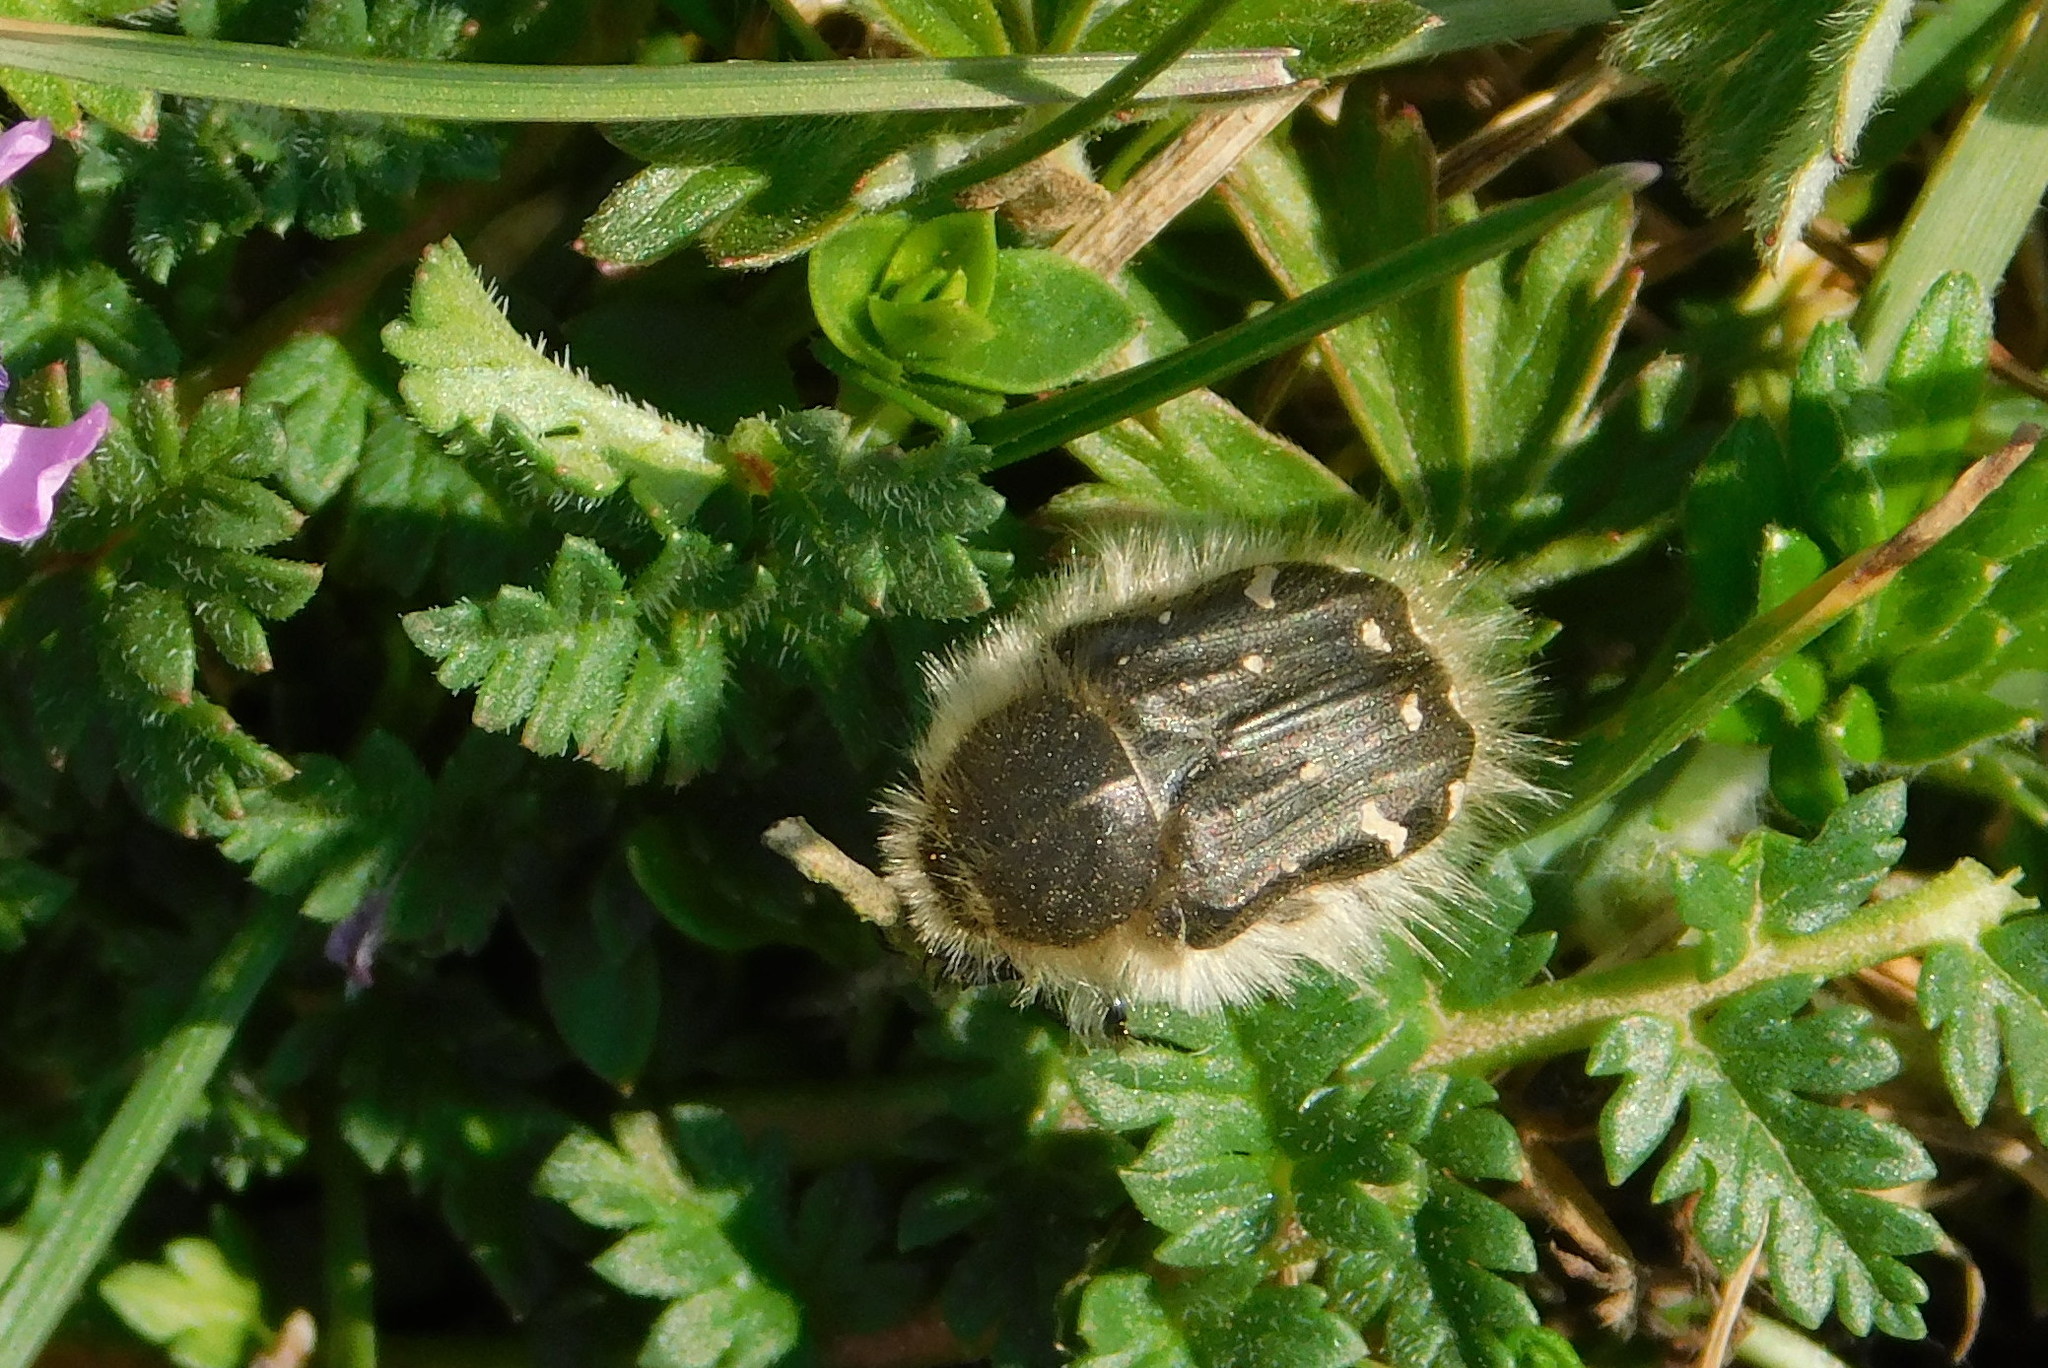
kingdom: Animalia
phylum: Arthropoda
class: Insecta
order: Coleoptera
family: Scarabaeidae
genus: Tropinota
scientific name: Tropinota hirta
